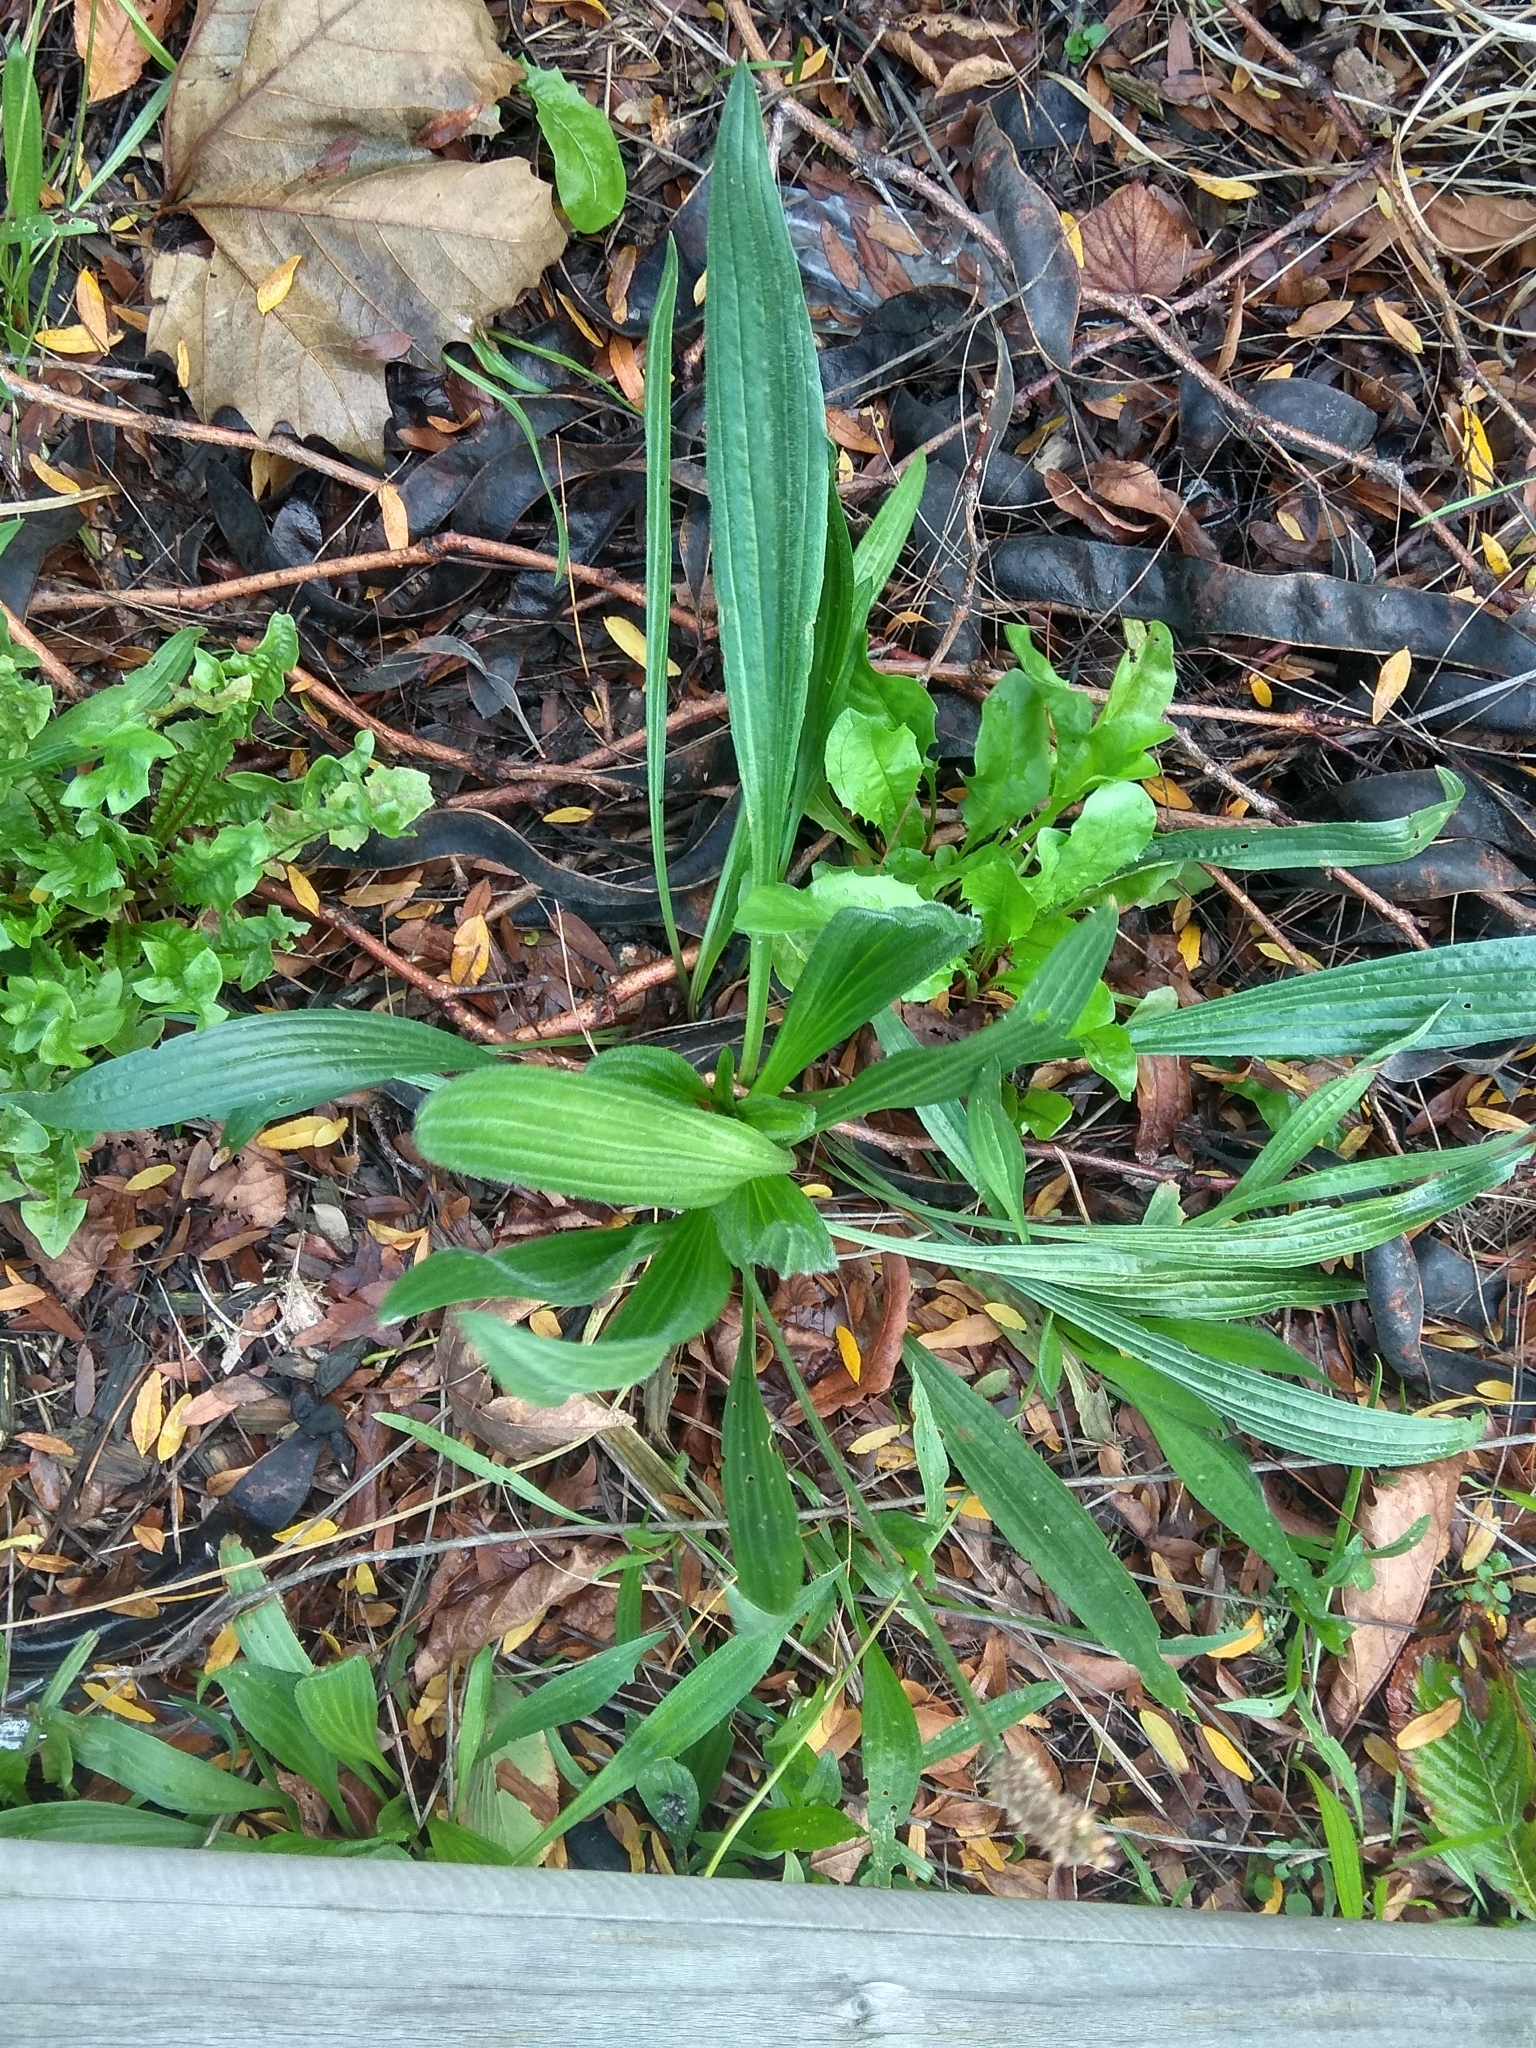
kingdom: Plantae
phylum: Tracheophyta
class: Magnoliopsida
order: Lamiales
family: Plantaginaceae
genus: Plantago
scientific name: Plantago lanceolata
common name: Ribwort plantain
